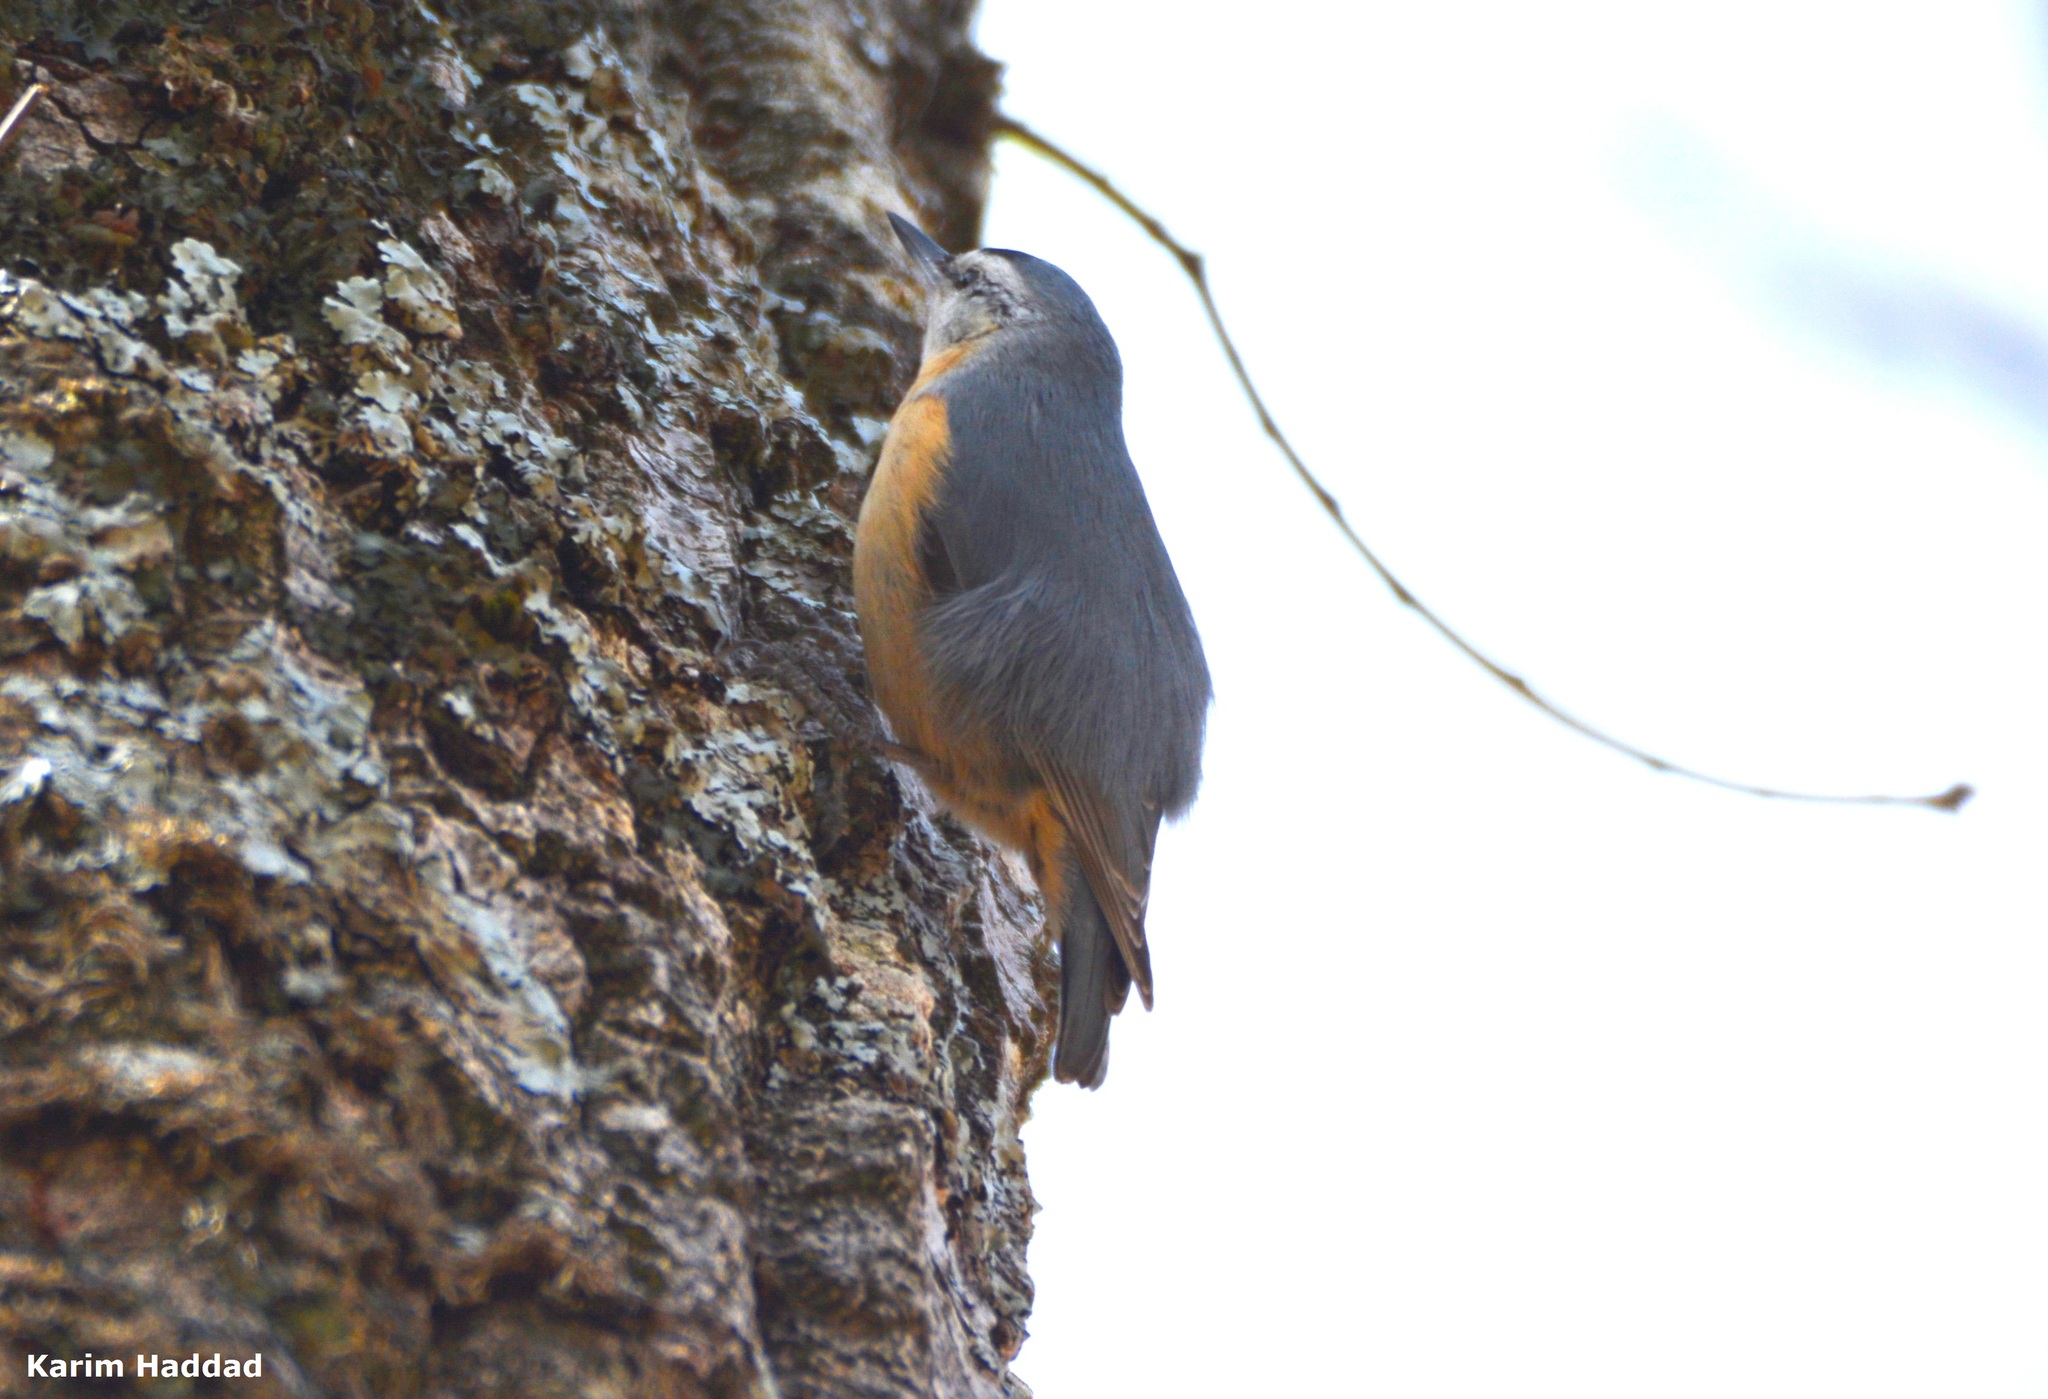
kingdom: Animalia
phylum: Chordata
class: Aves
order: Passeriformes
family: Sittidae
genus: Sitta
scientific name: Sitta ledanti
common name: Algerian nuthatch
